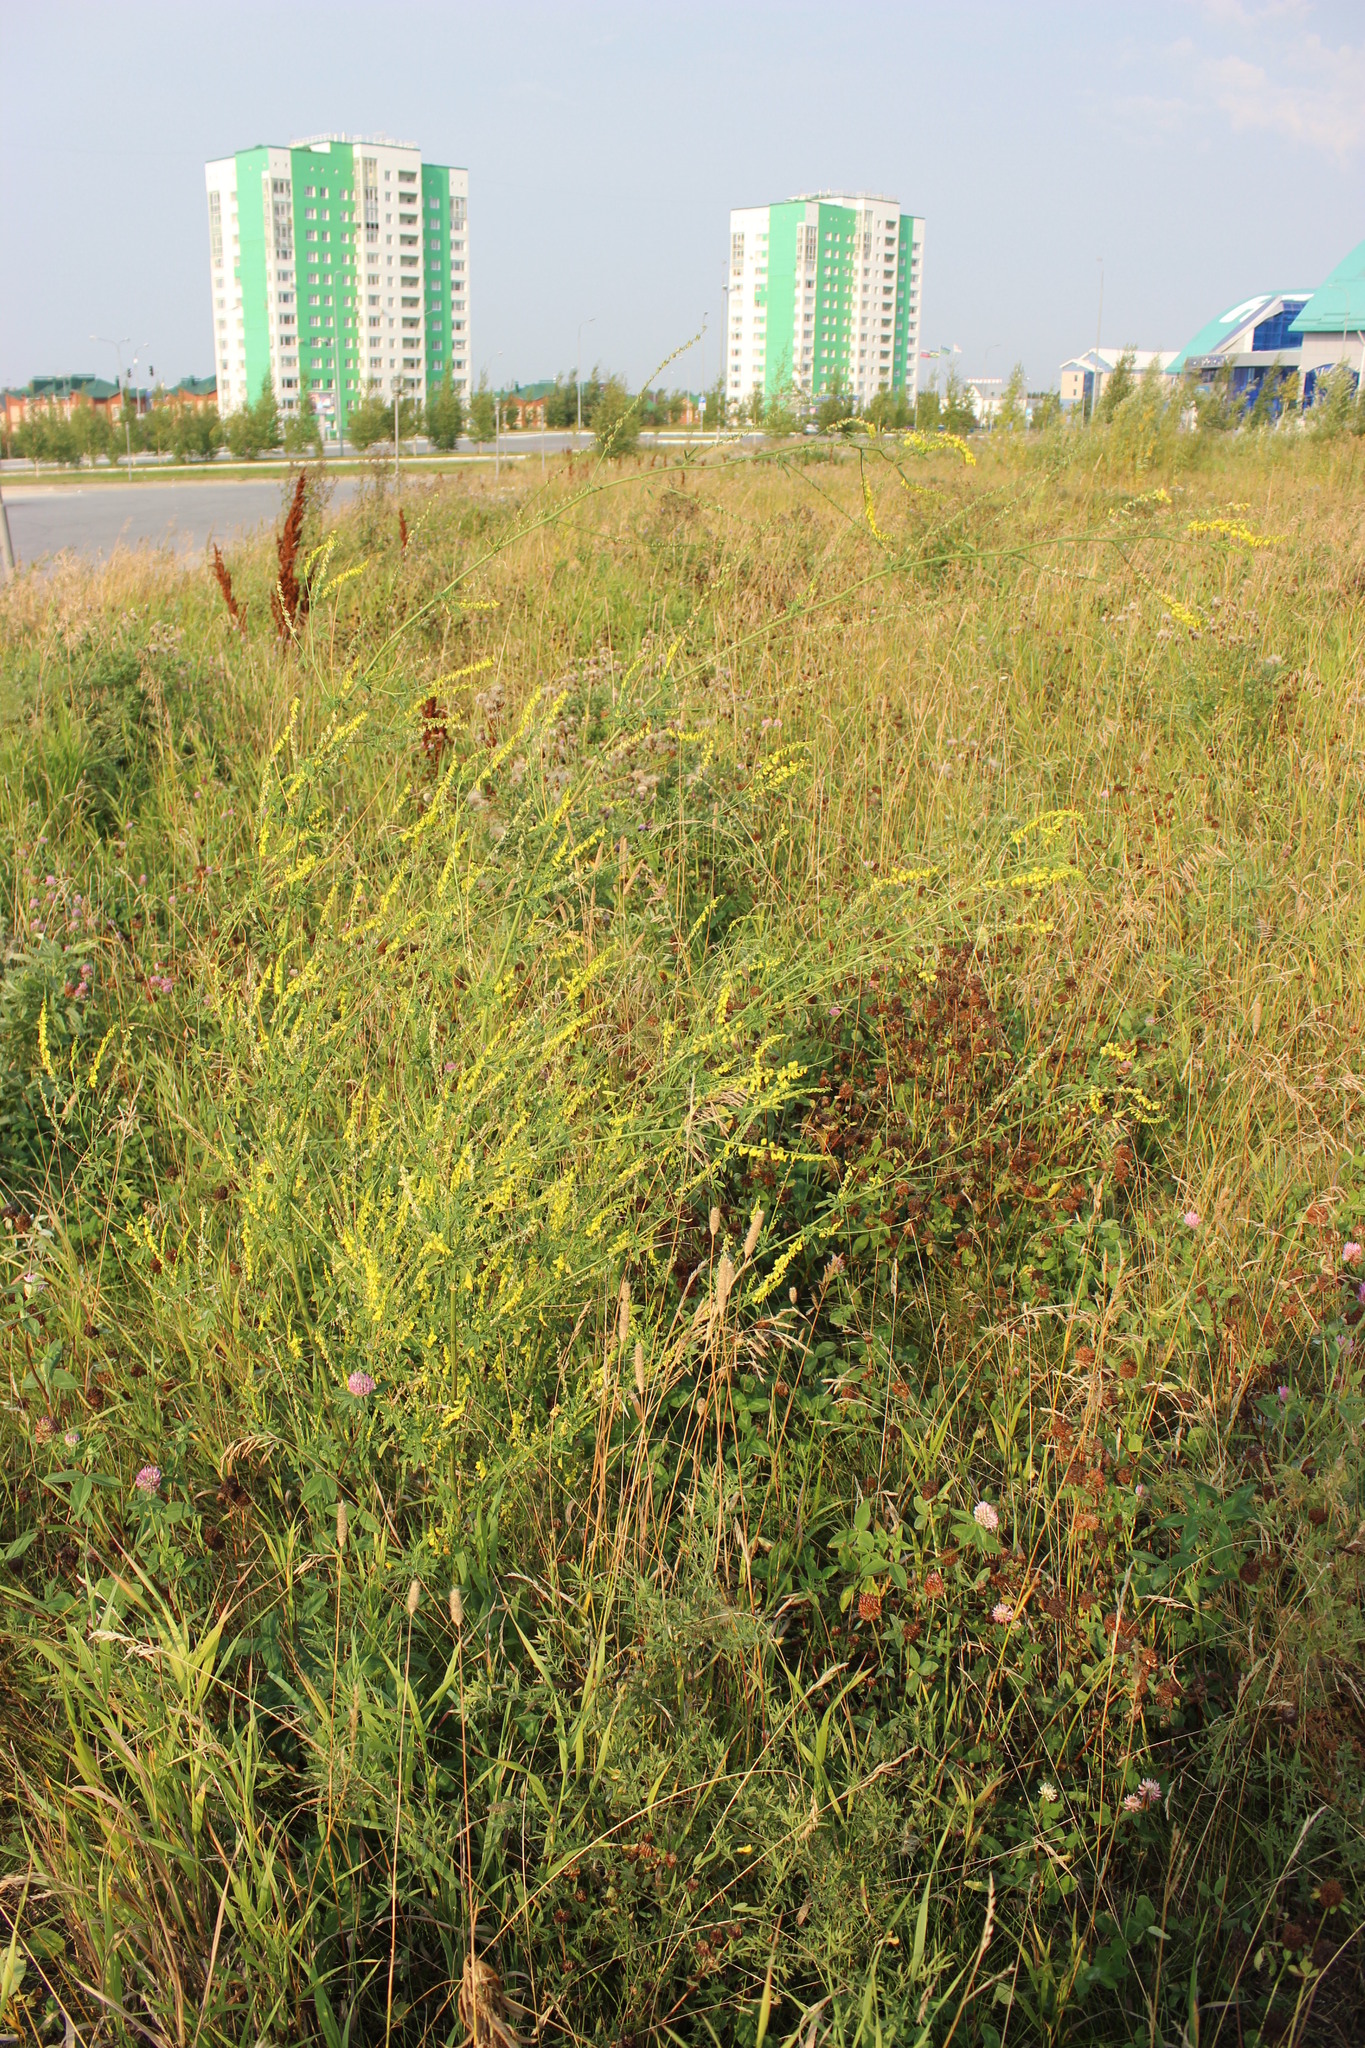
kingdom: Plantae
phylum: Tracheophyta
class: Magnoliopsida
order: Fabales
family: Fabaceae
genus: Melilotus
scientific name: Melilotus officinalis
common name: Sweetclover
